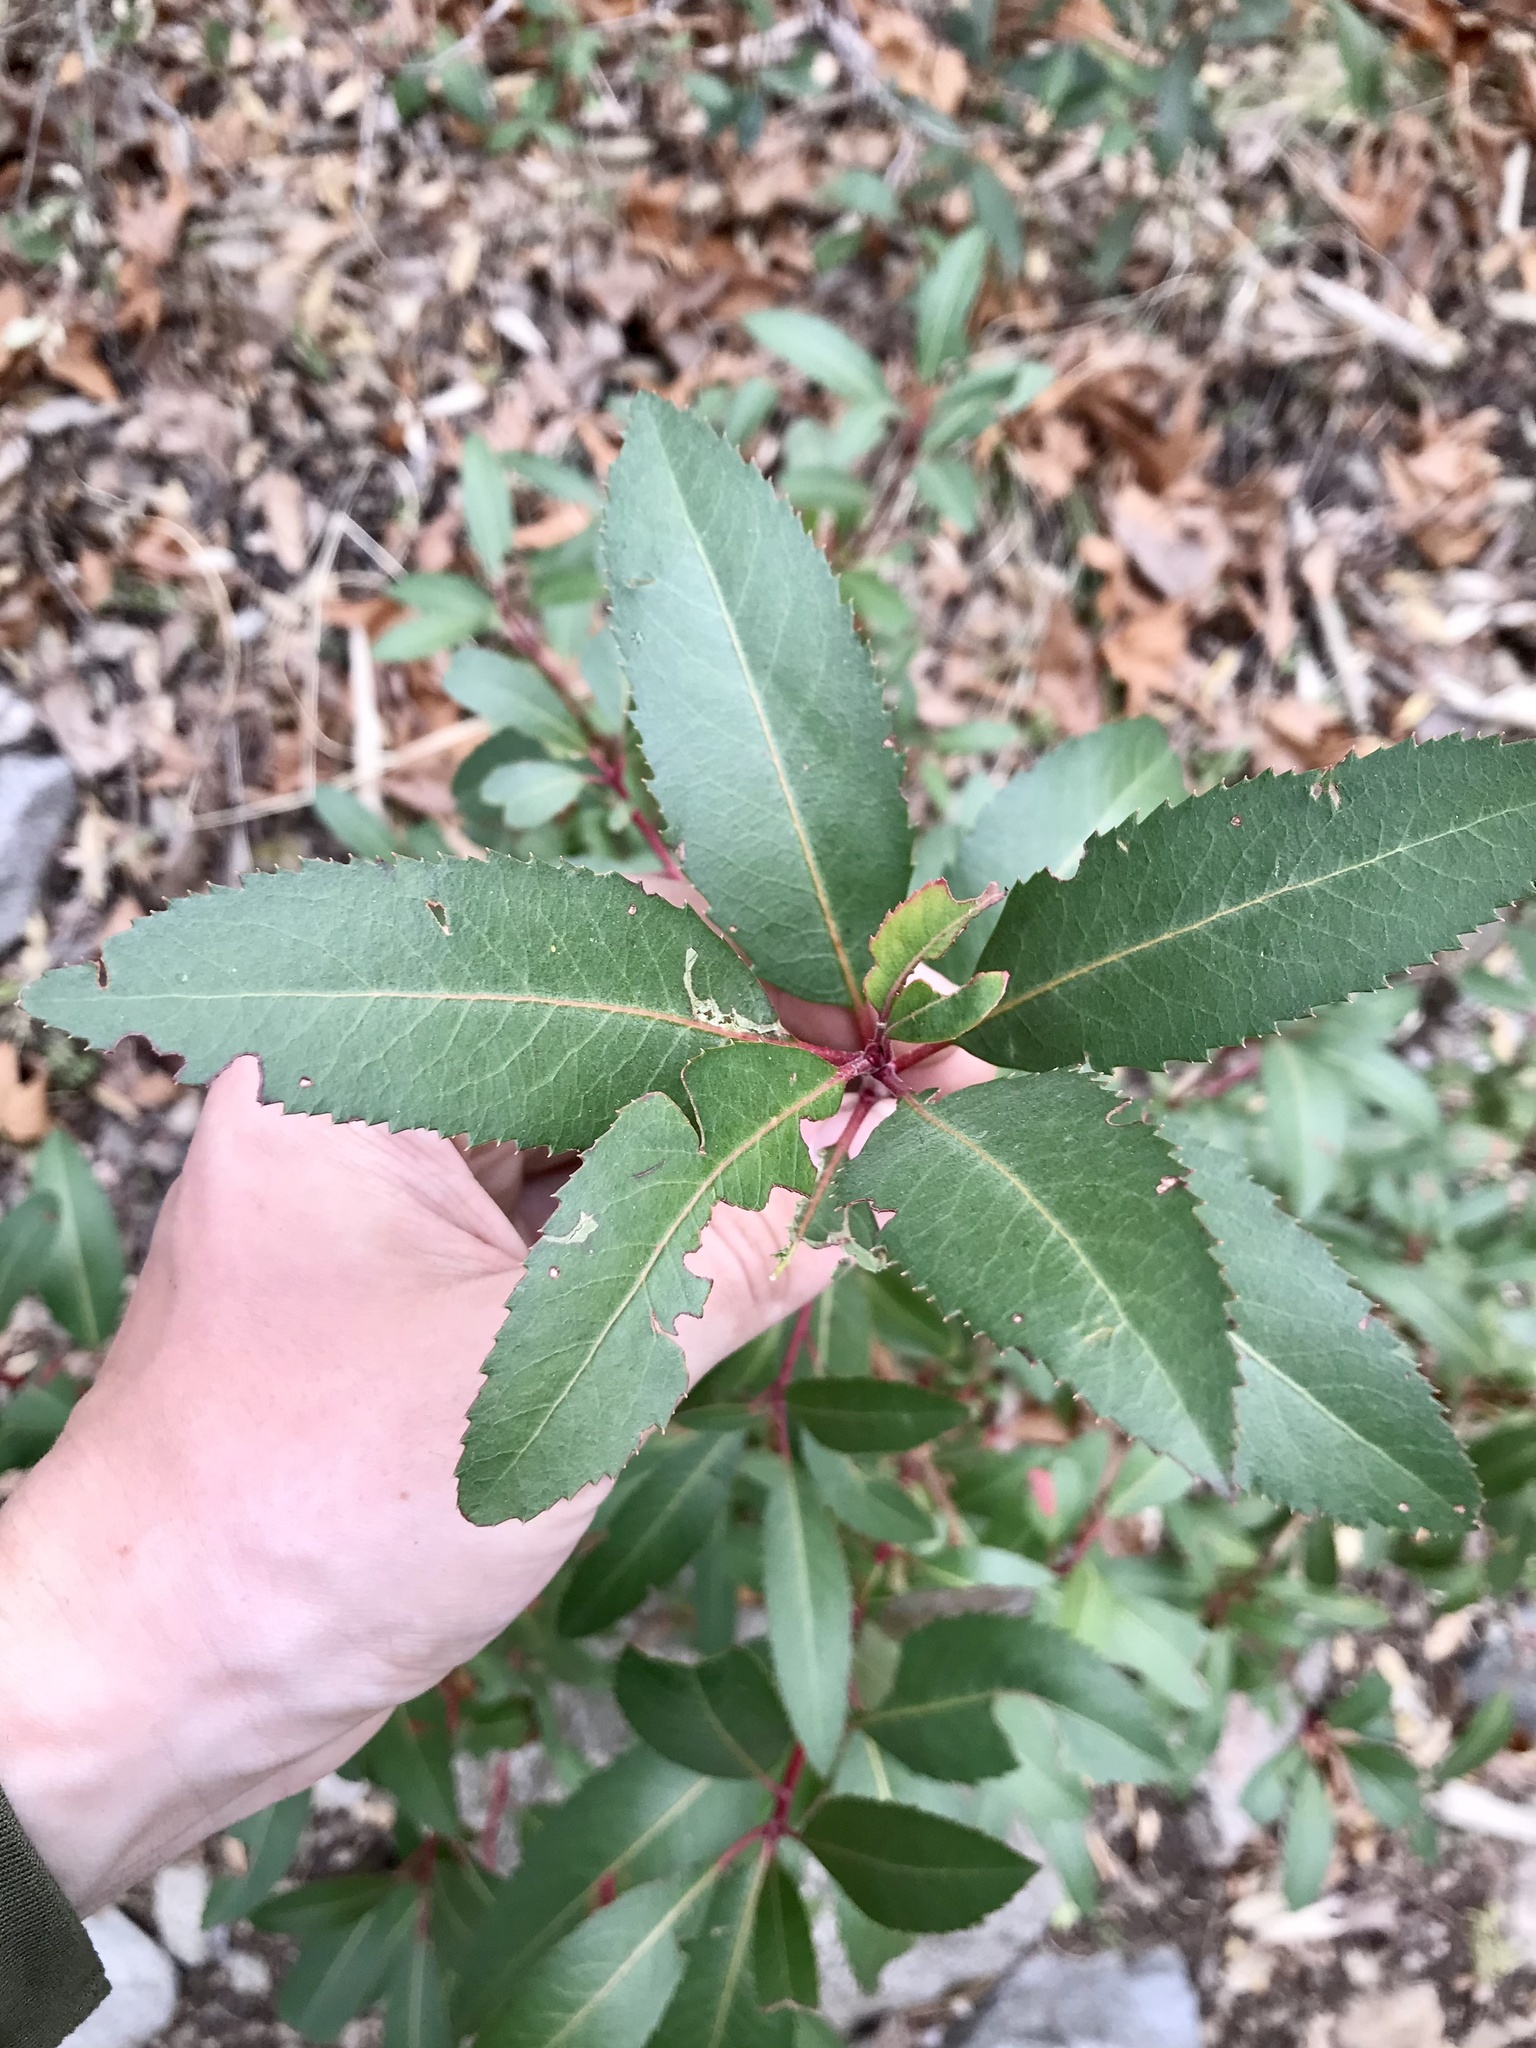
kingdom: Plantae
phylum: Tracheophyta
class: Magnoliopsida
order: Ericales
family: Ericaceae
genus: Arbutus
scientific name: Arbutus arizonica
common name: Arizona madrone
